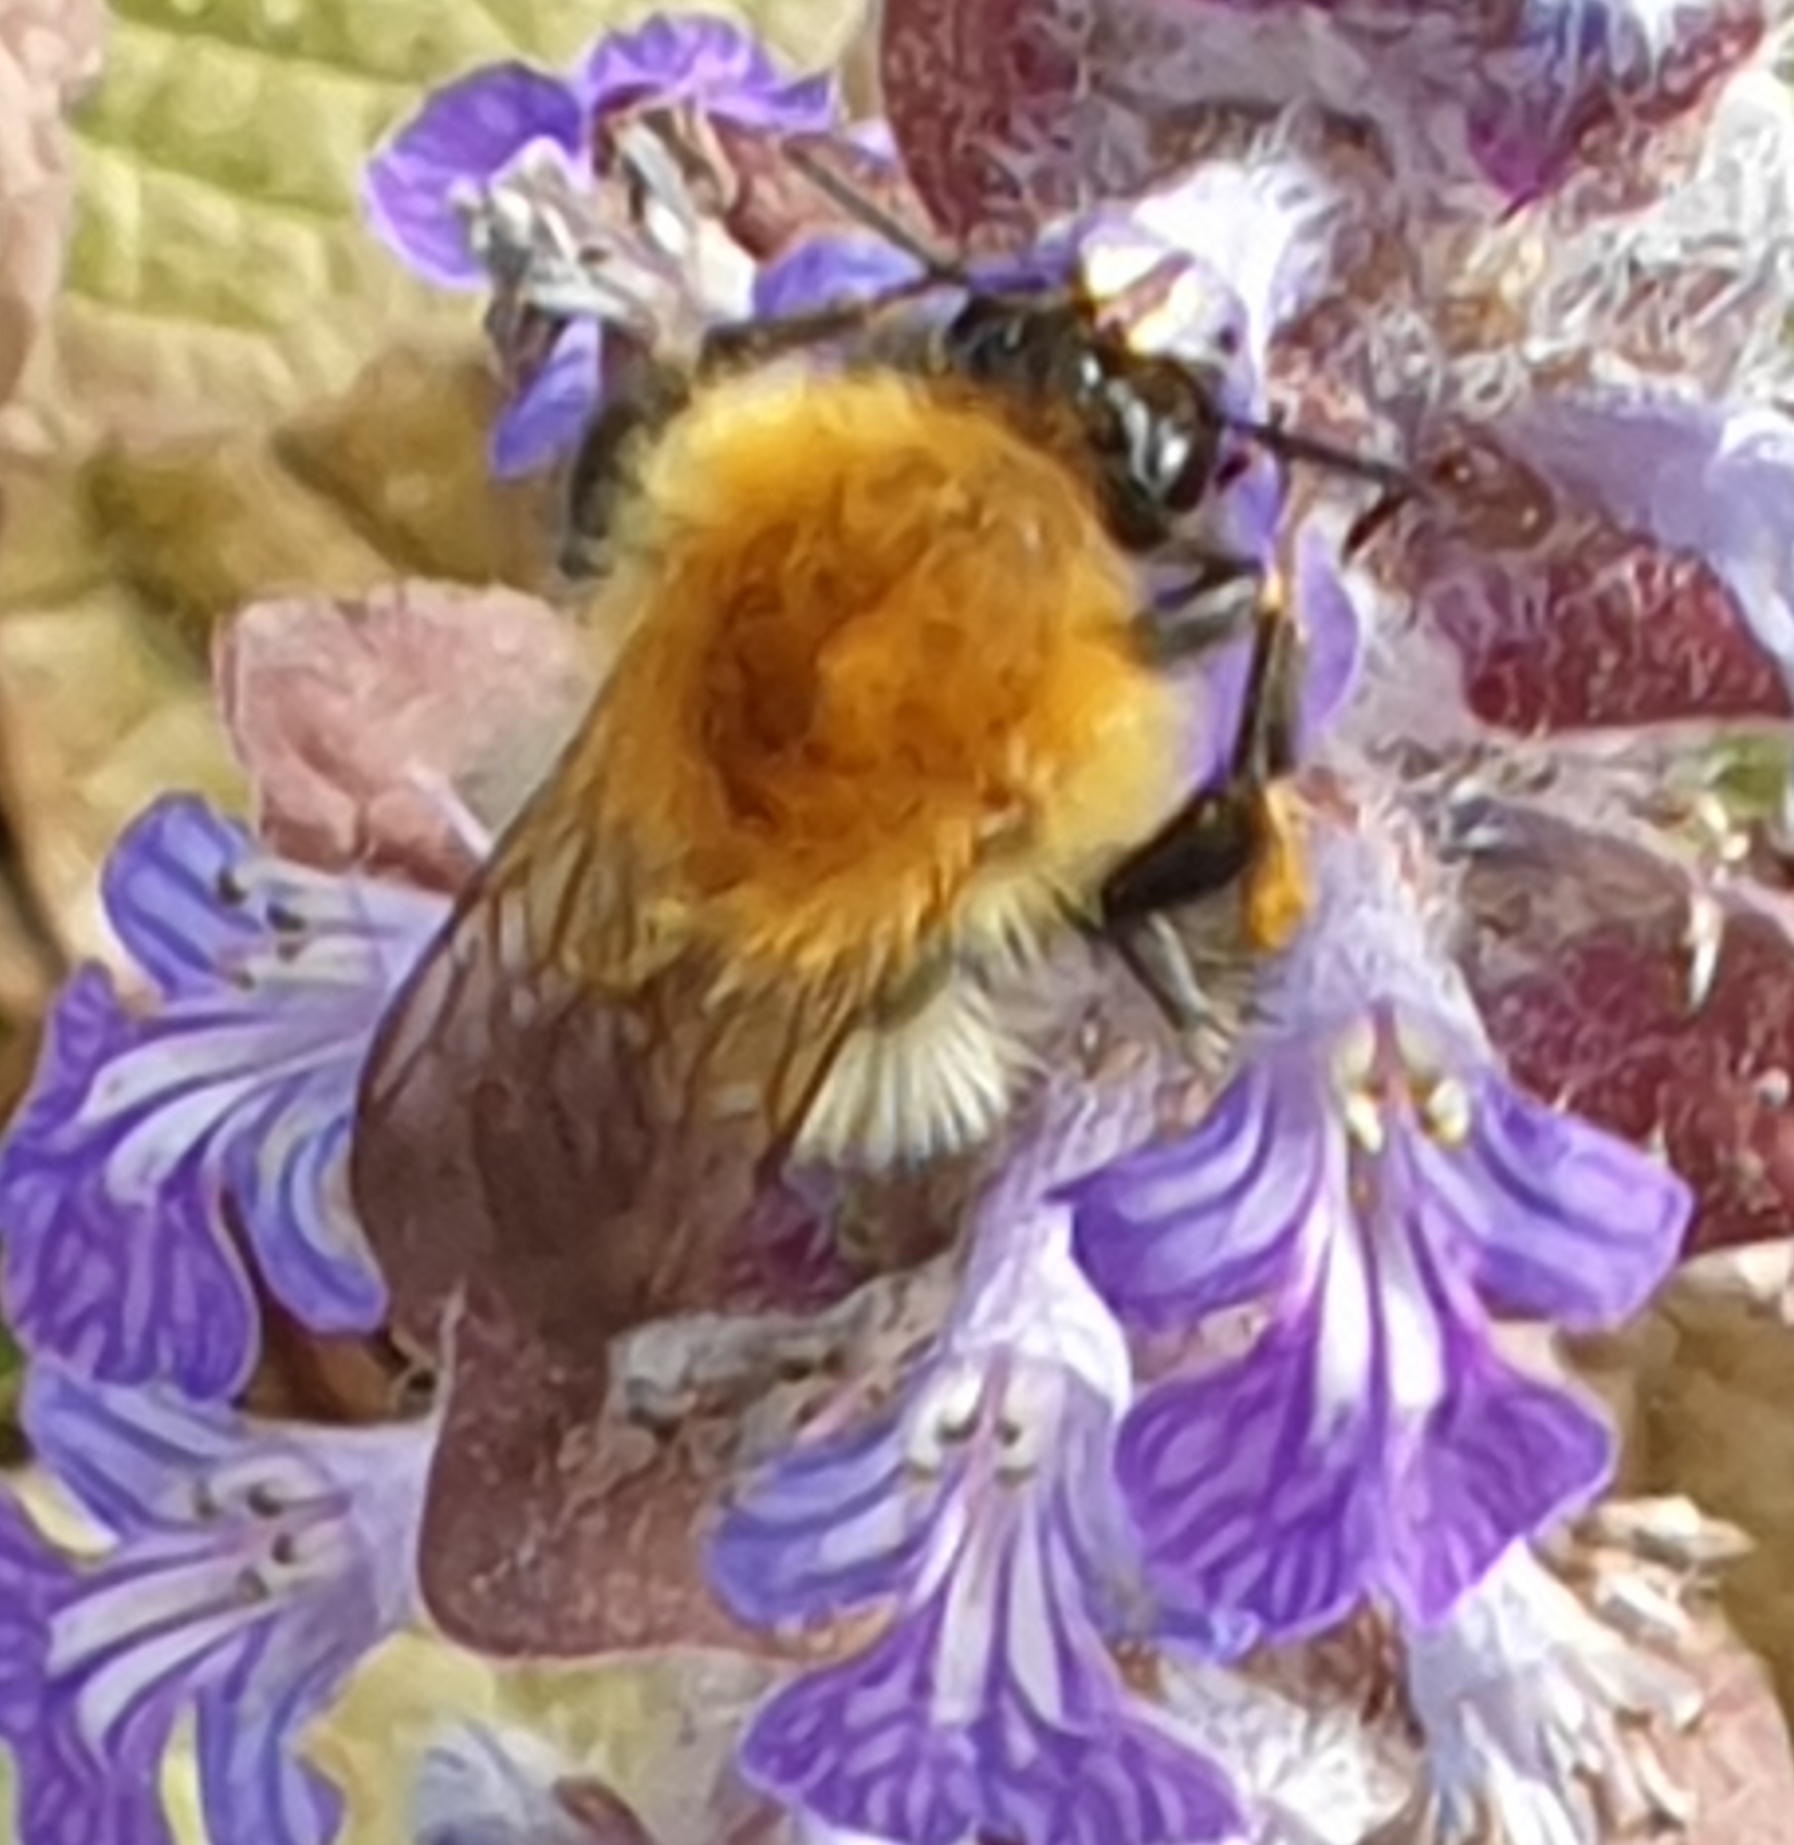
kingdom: Animalia
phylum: Arthropoda
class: Insecta
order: Hymenoptera
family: Apidae
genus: Bombus
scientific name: Bombus pascuorum
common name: Common carder bee
